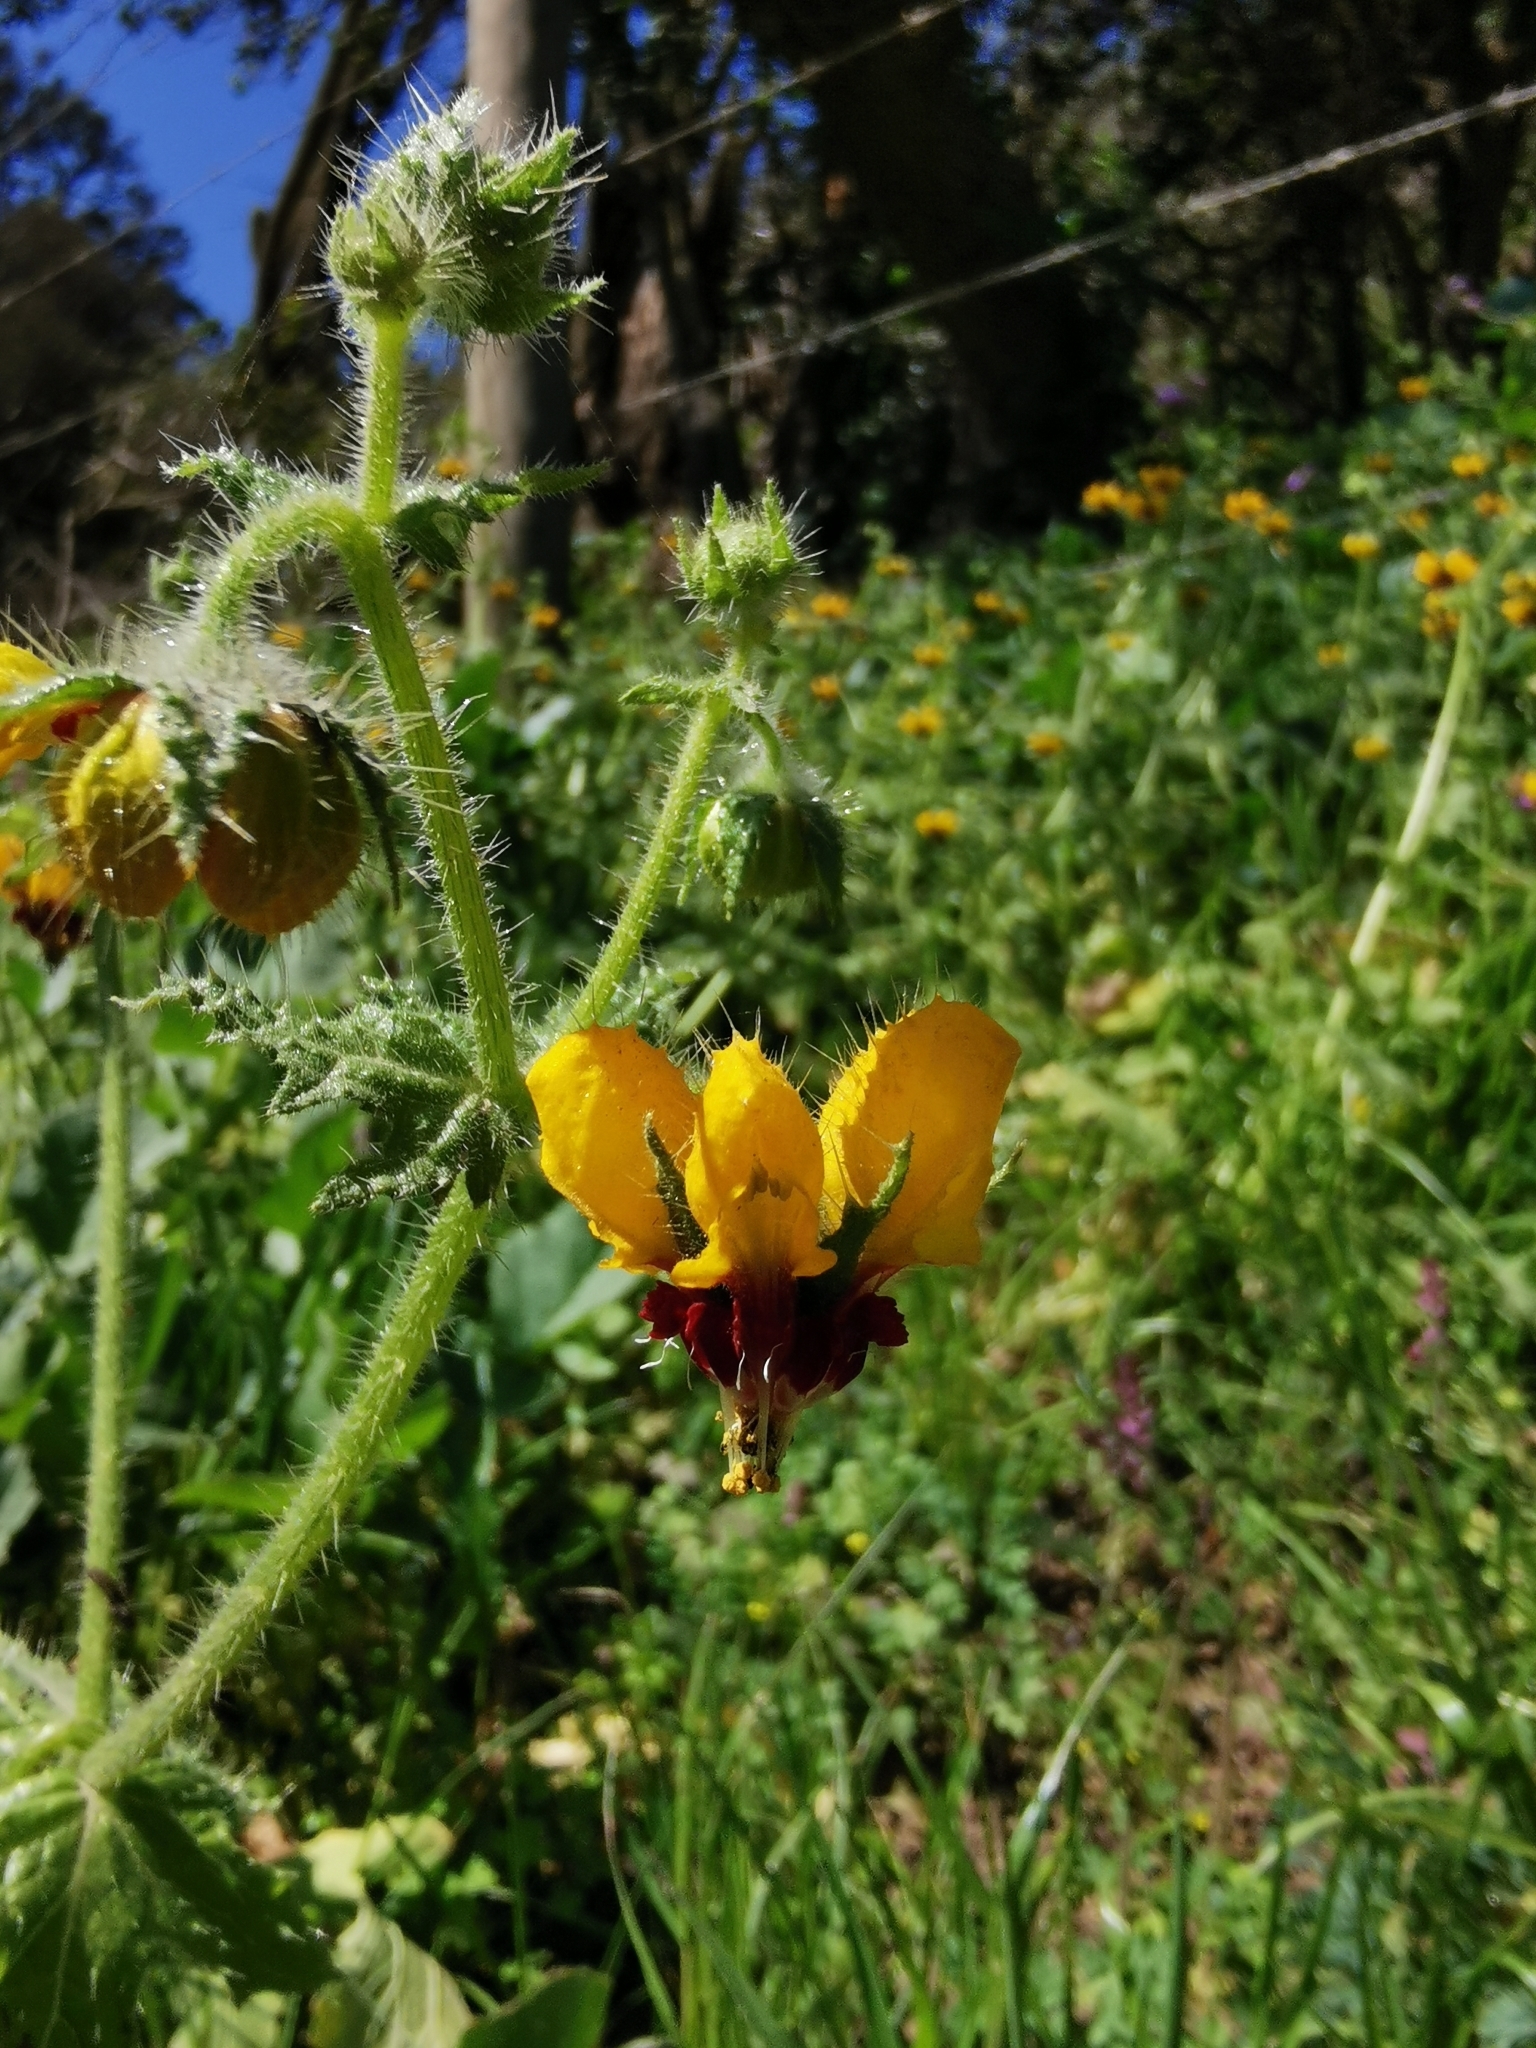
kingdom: Plantae
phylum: Tracheophyta
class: Magnoliopsida
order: Cornales
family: Loasaceae
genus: Loasa
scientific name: Loasa tricolor
